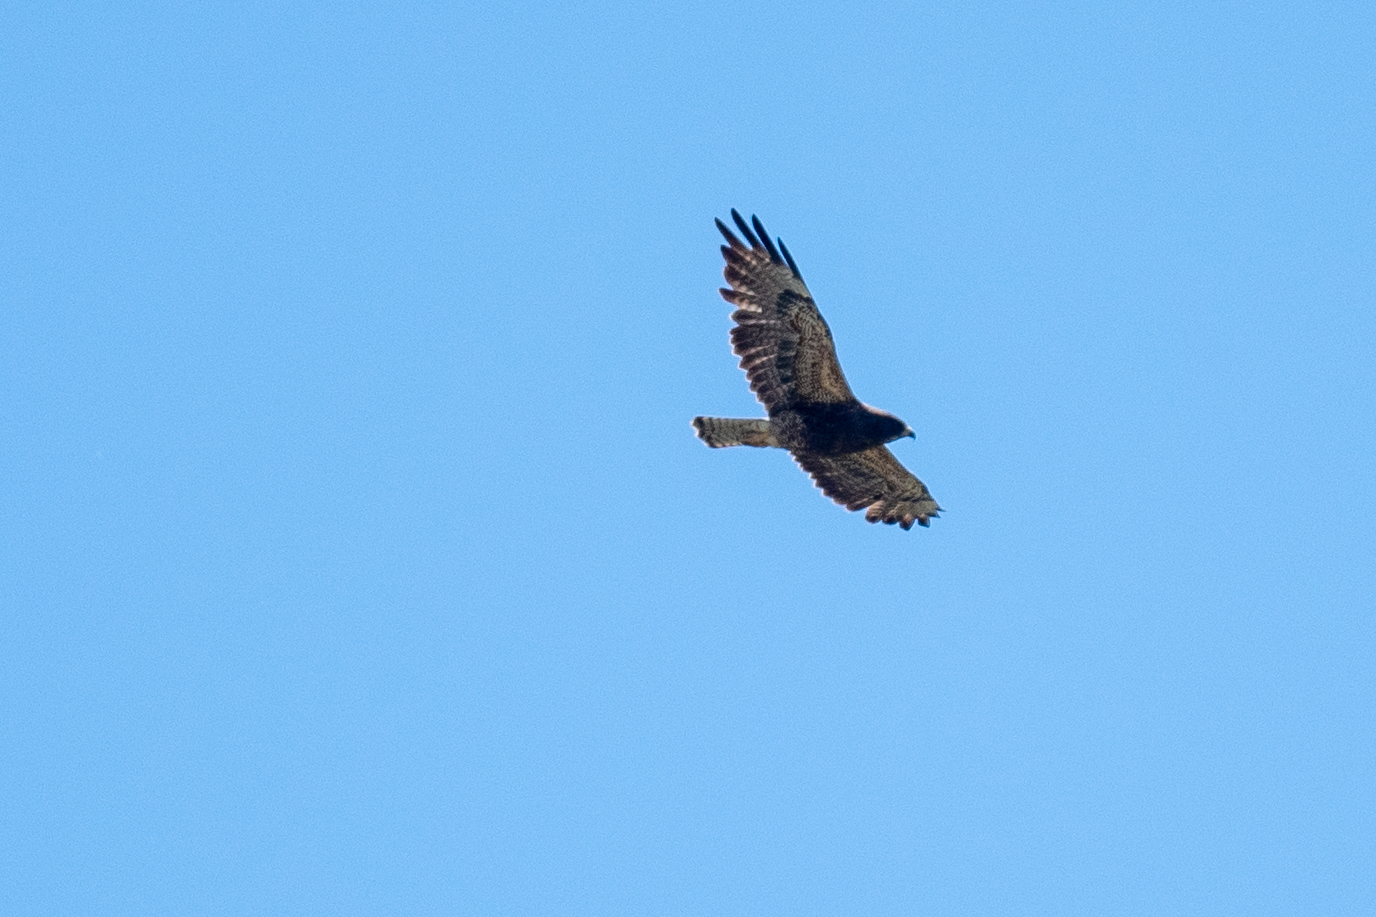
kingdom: Animalia
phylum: Chordata
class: Aves
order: Accipitriformes
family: Accipitridae
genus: Buteo
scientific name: Buteo swainsoni
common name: Swainson's hawk
